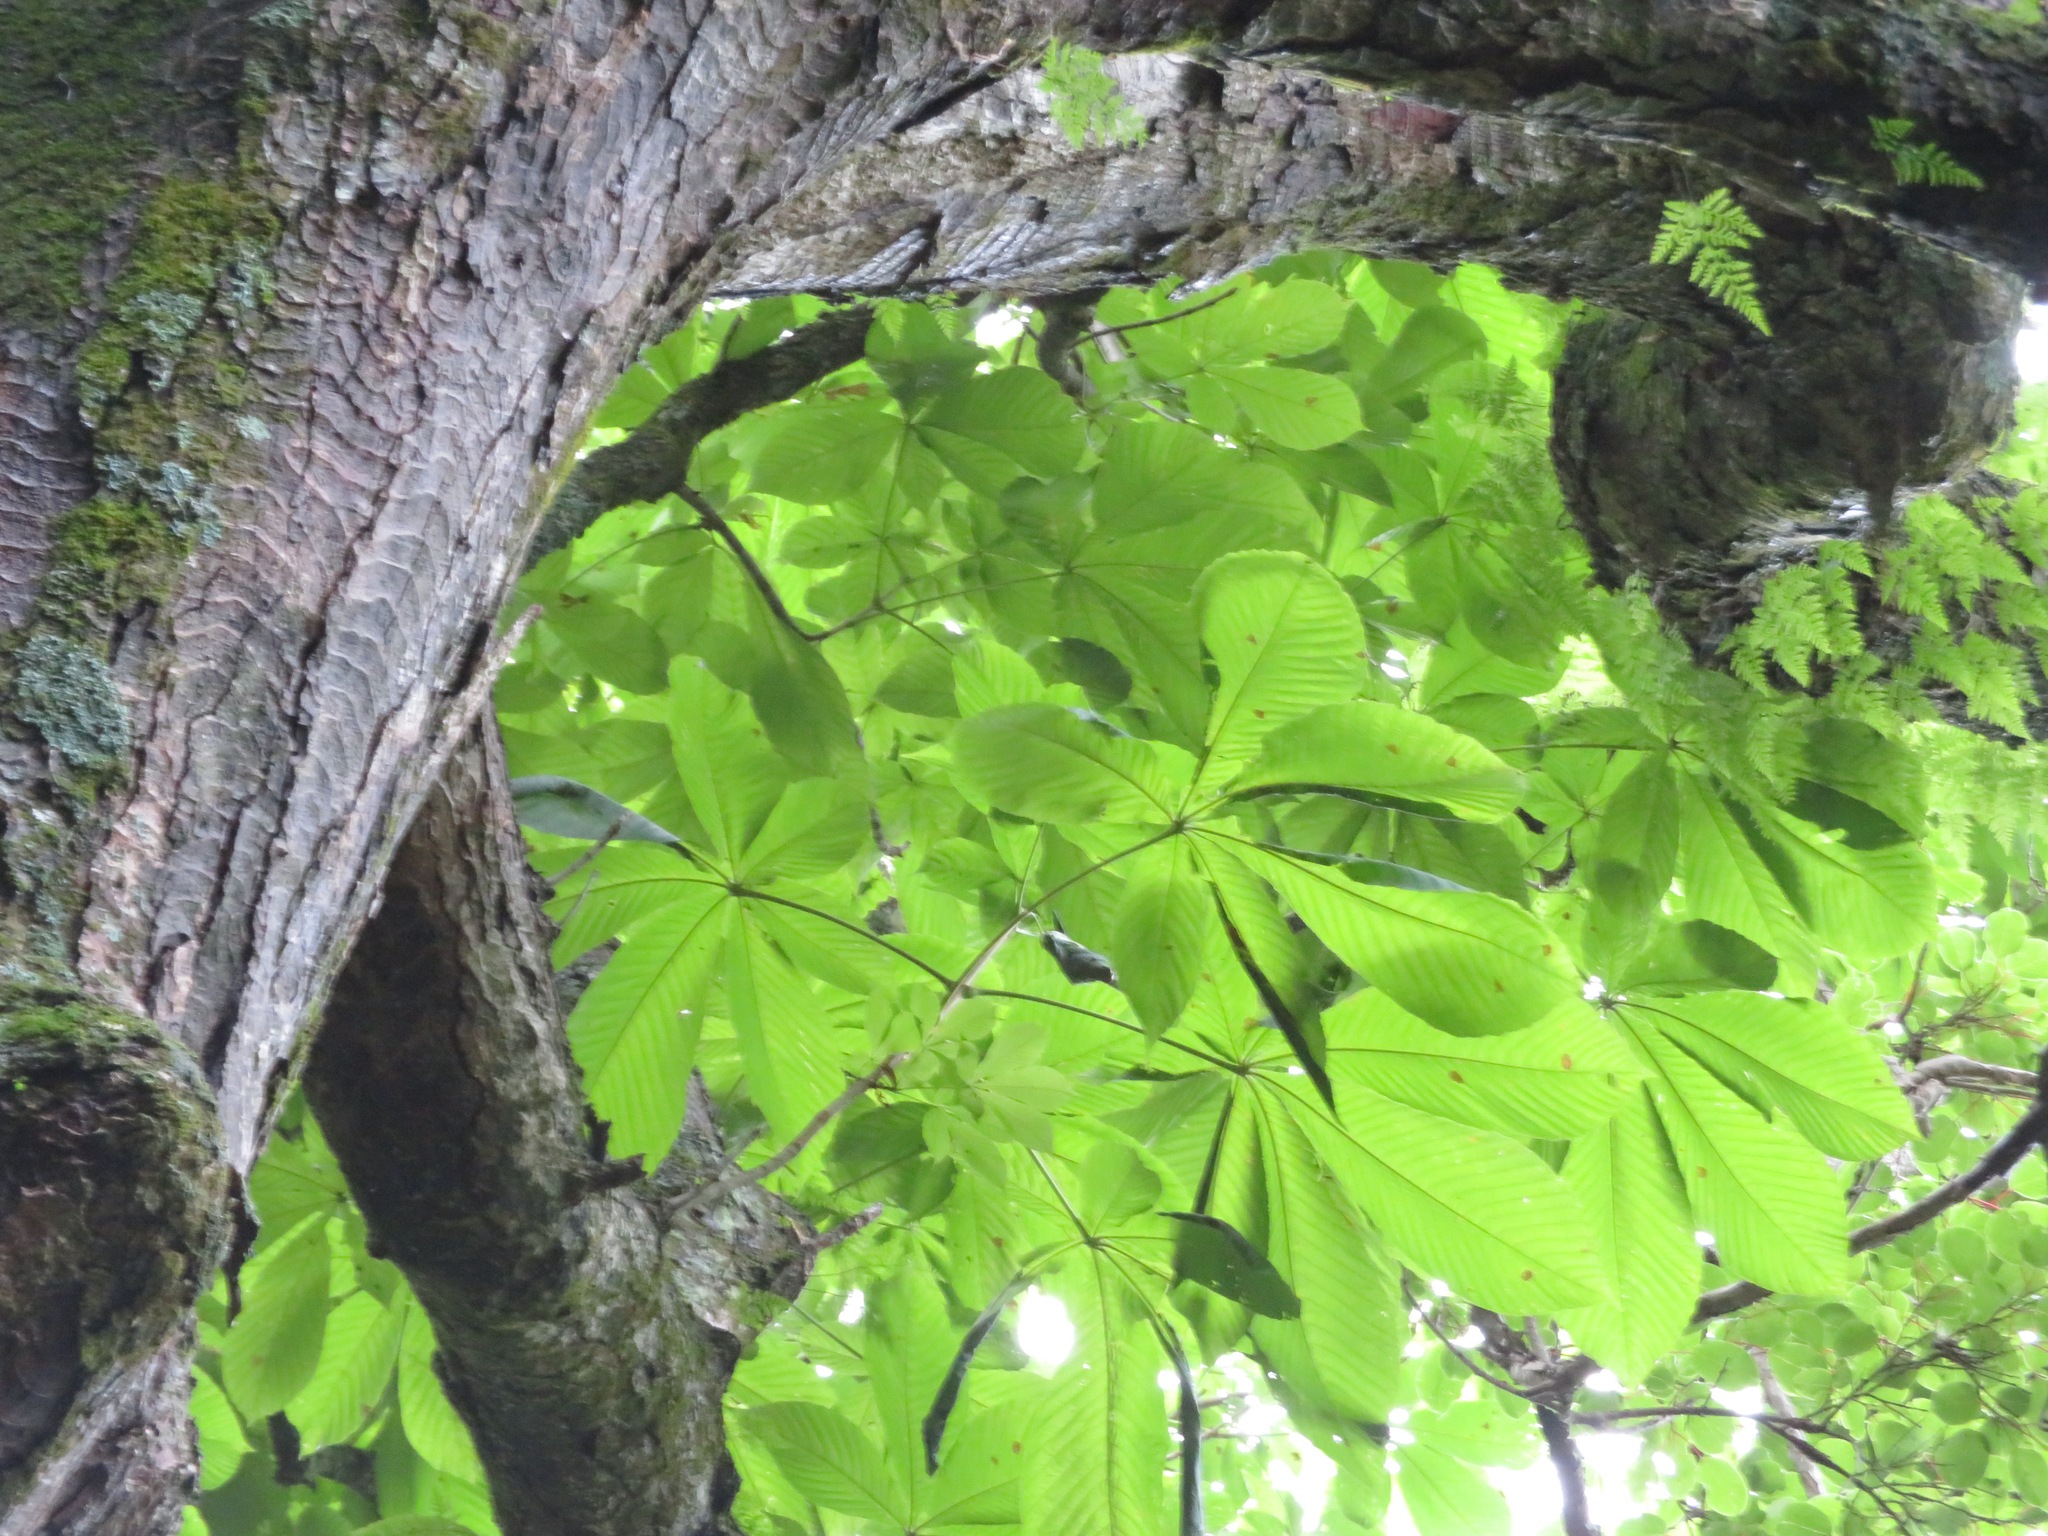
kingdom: Plantae
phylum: Tracheophyta
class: Magnoliopsida
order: Sapindales
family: Sapindaceae
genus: Aesculus
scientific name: Aesculus turbinata
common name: Japanese horse-chestnut
